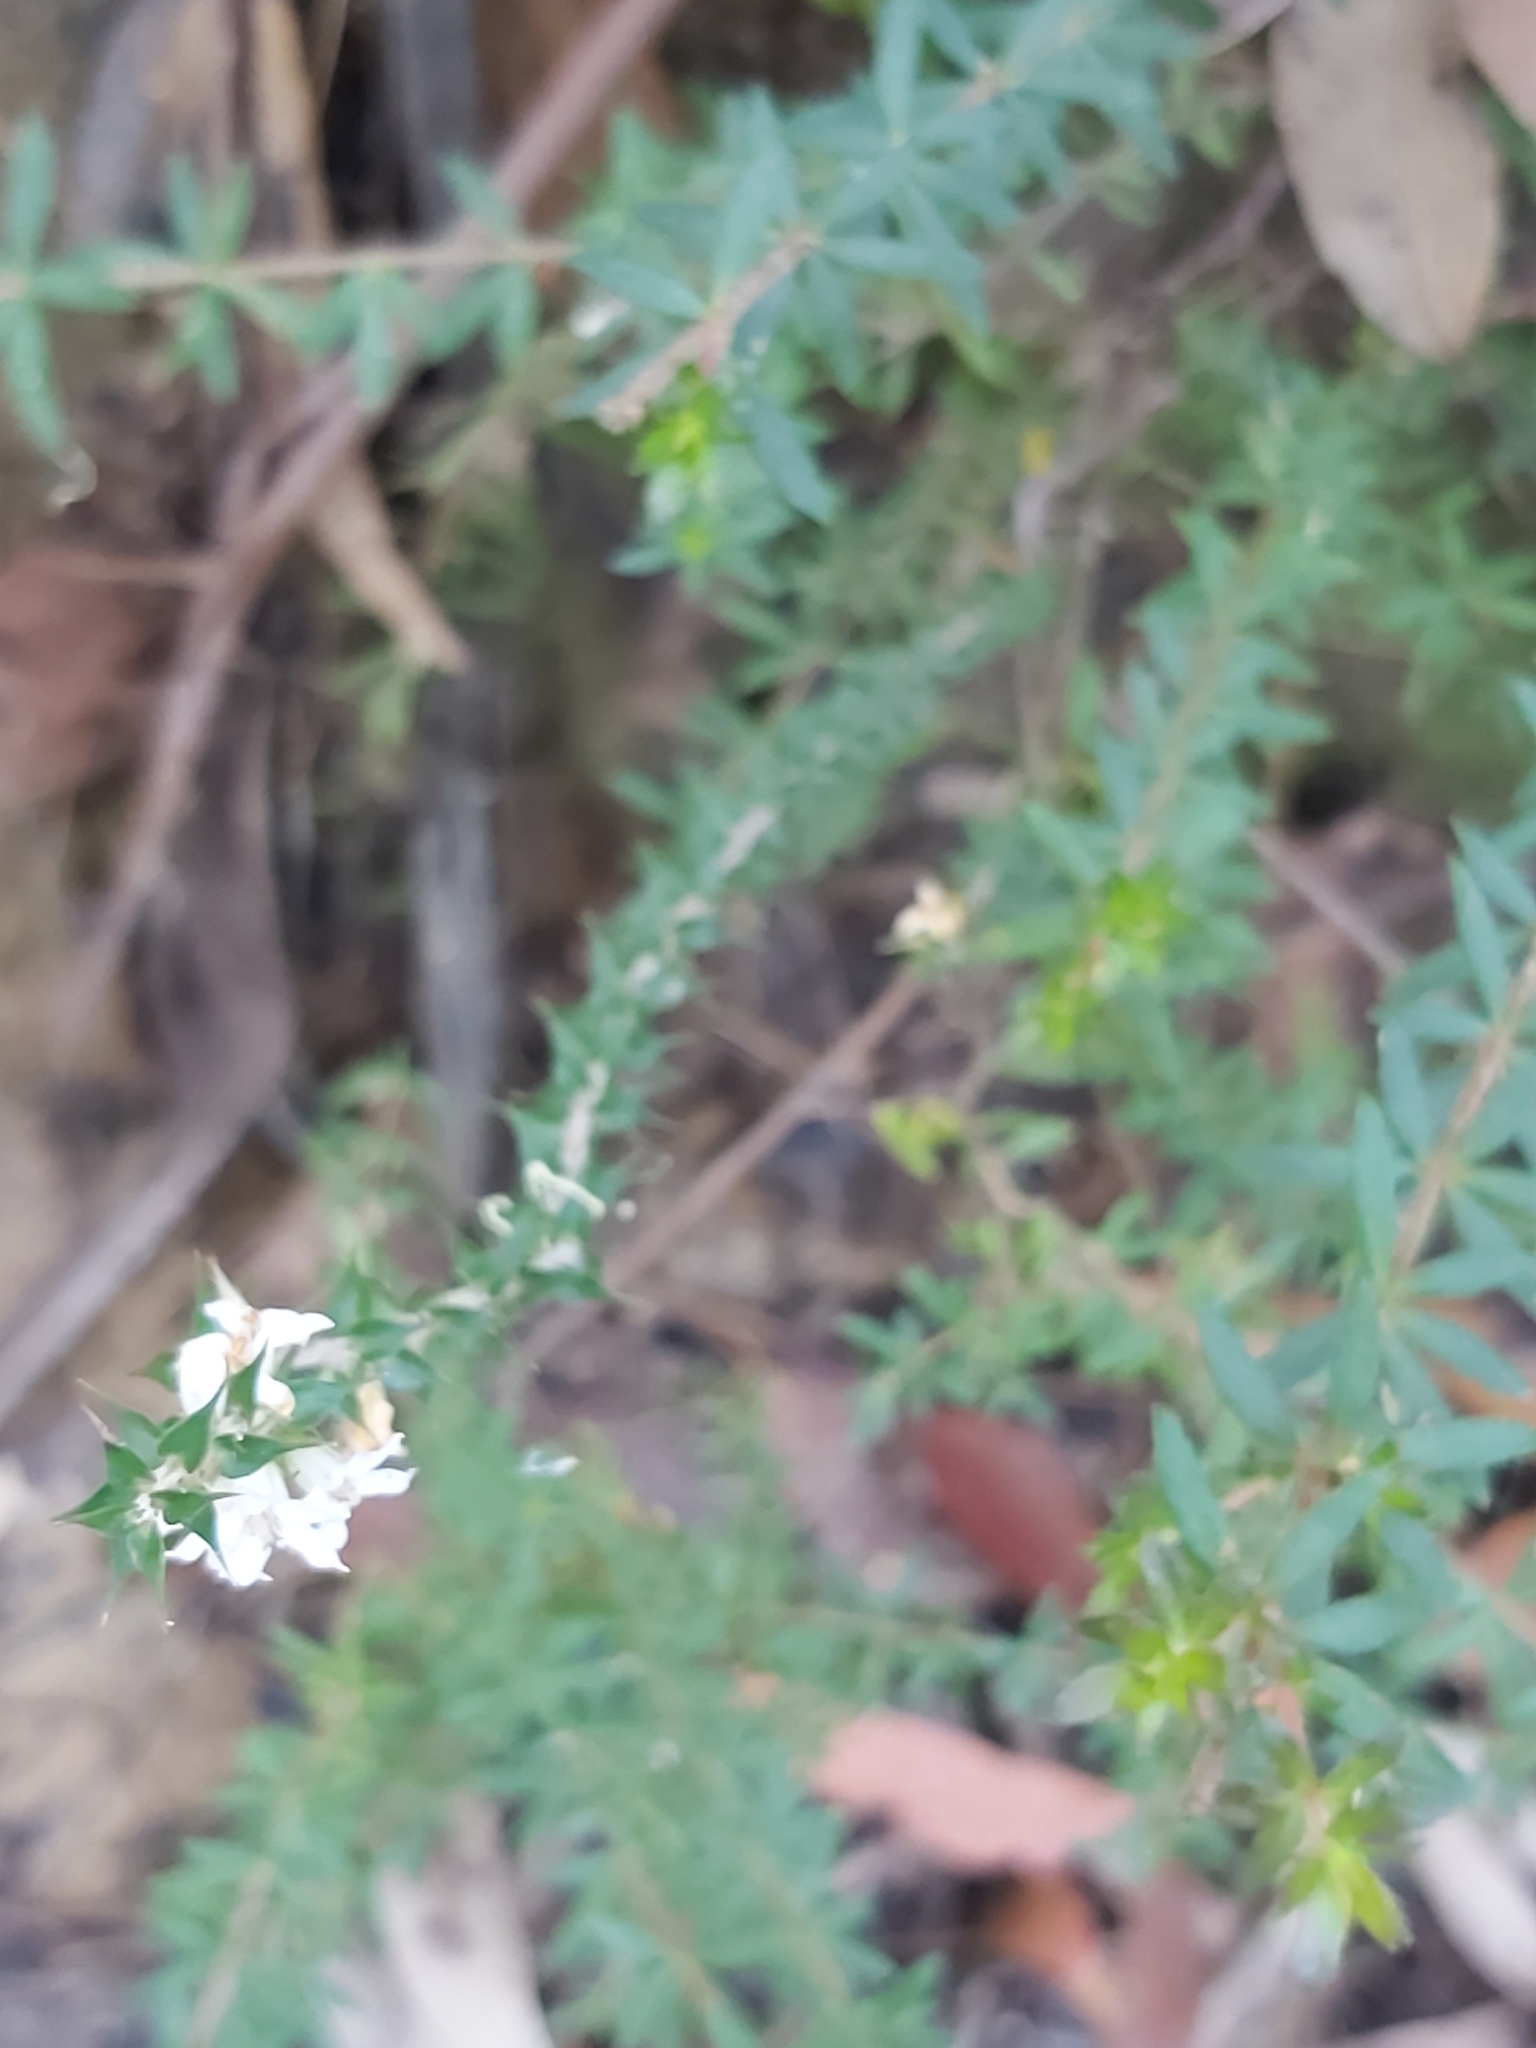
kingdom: Plantae
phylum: Tracheophyta
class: Magnoliopsida
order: Ericales
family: Ericaceae
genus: Epacris
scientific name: Epacris pulchella
